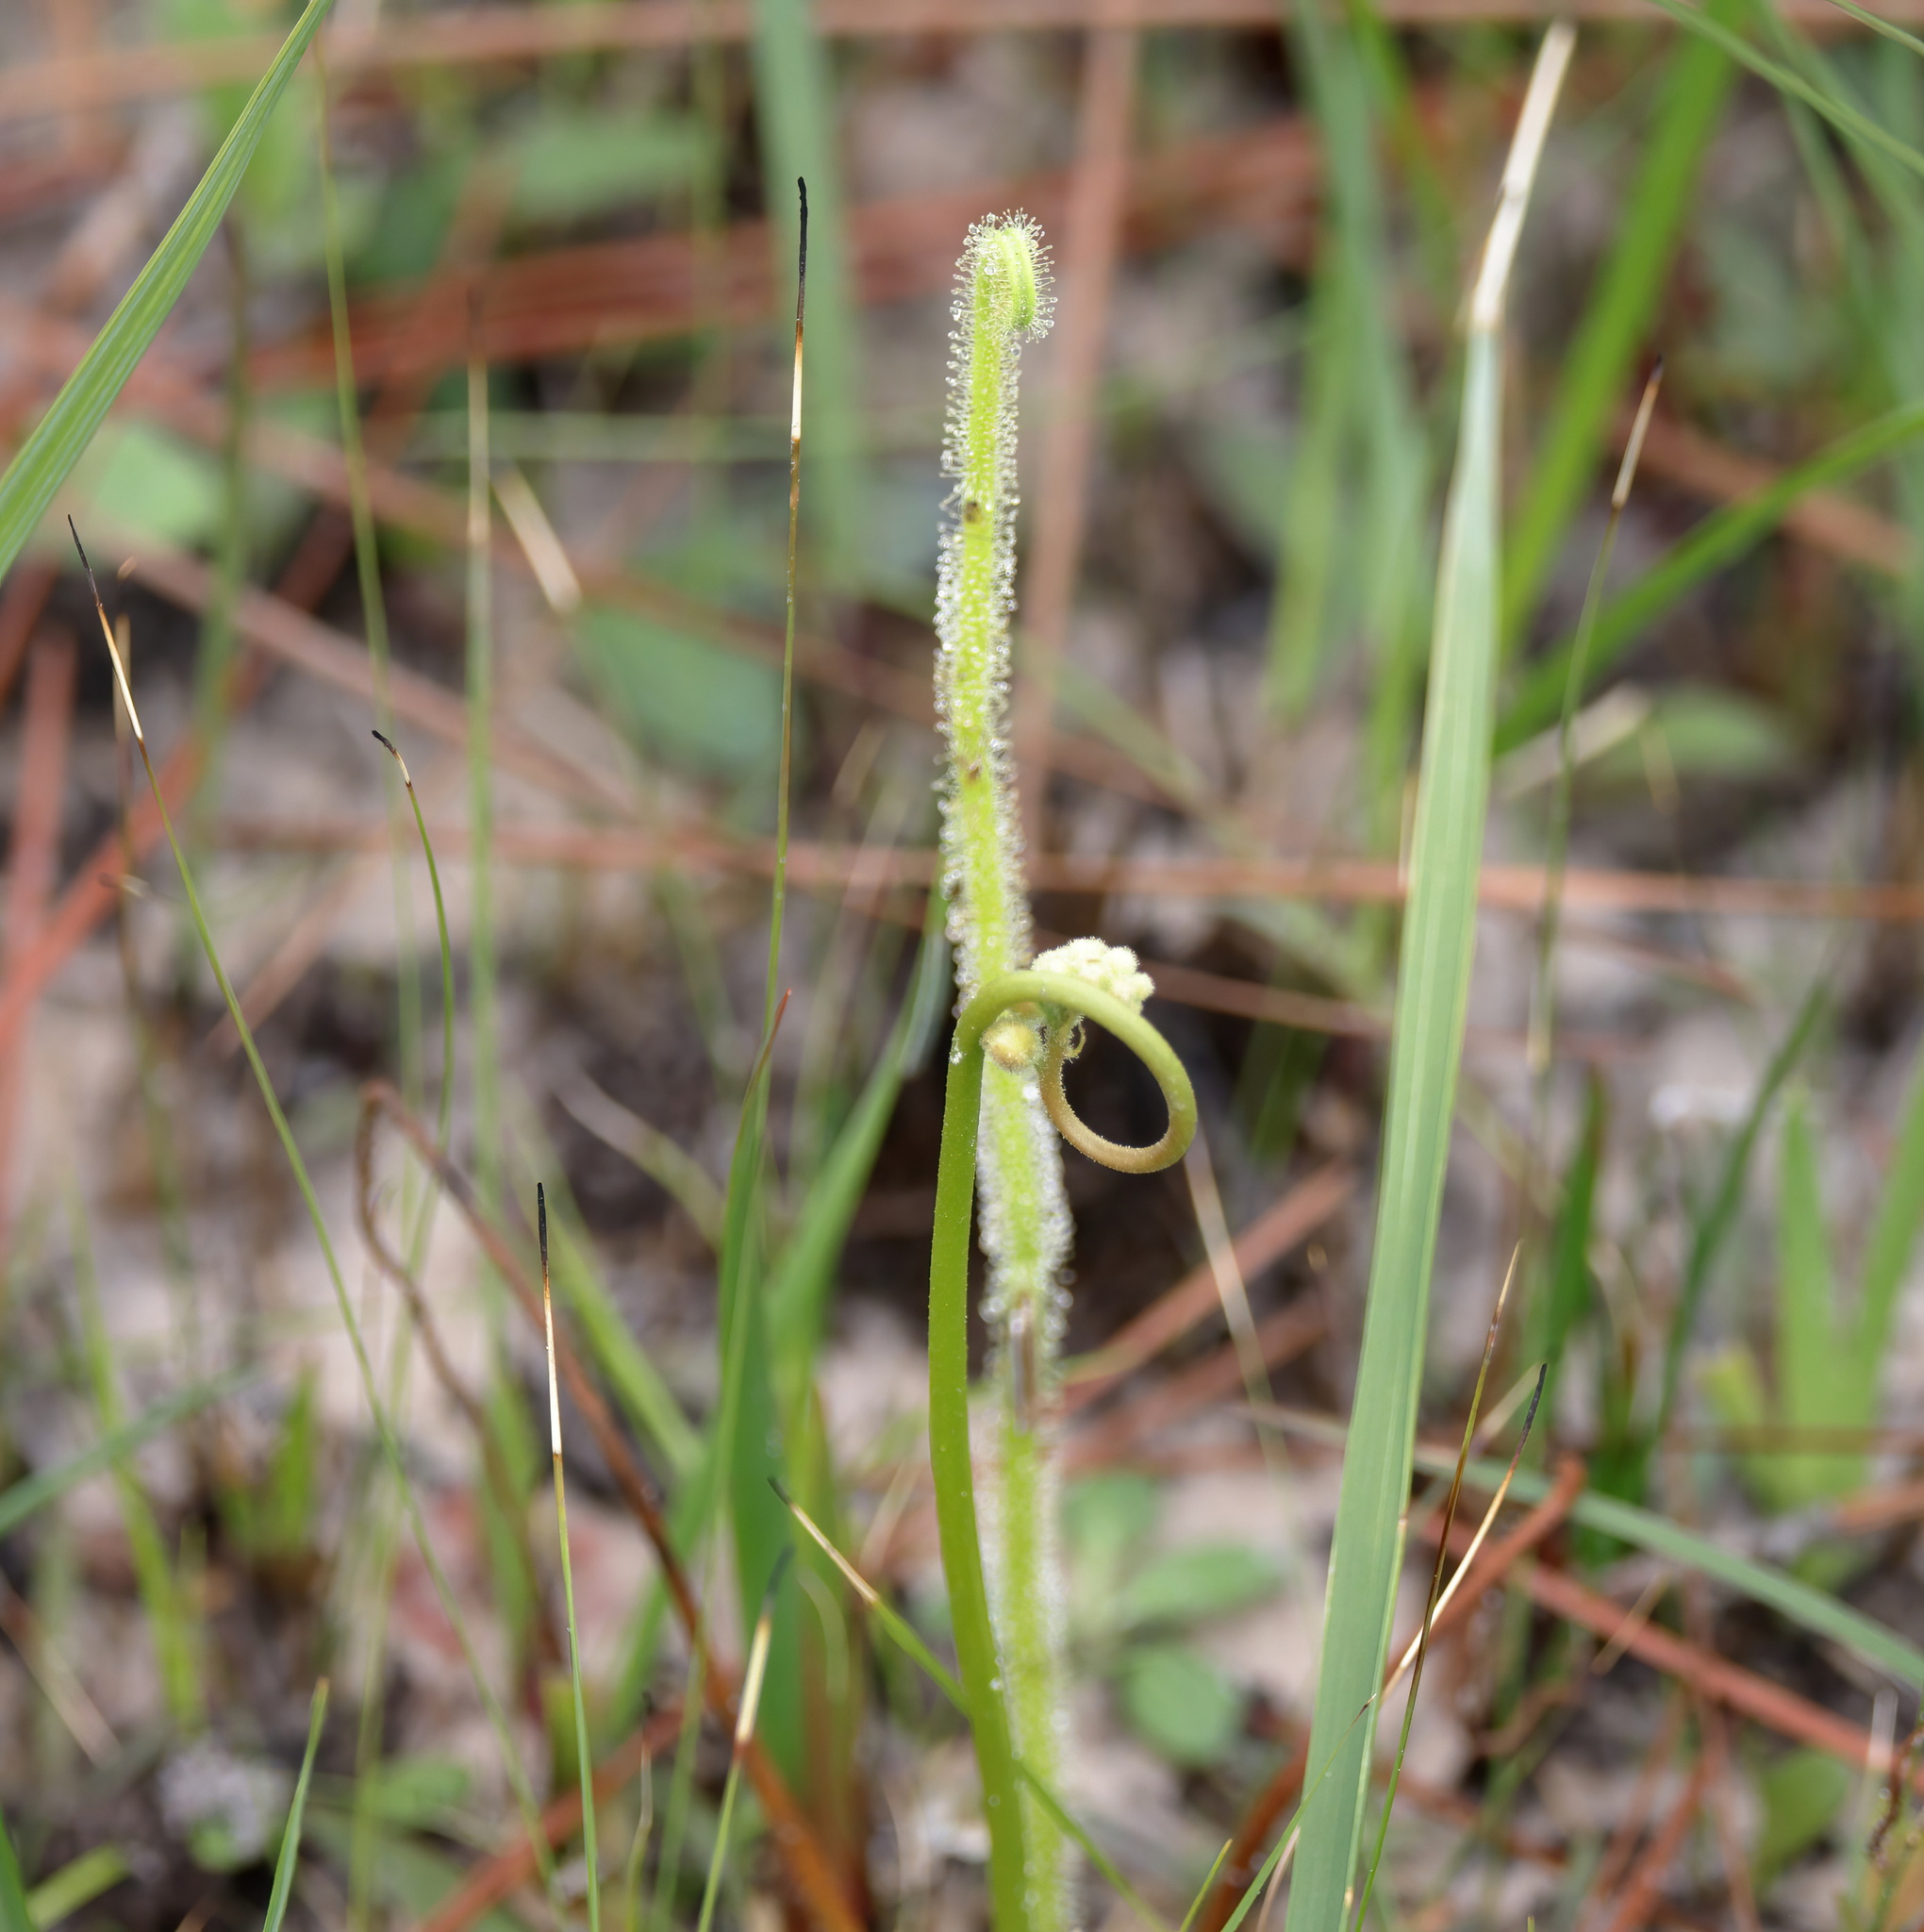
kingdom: Plantae
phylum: Tracheophyta
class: Magnoliopsida
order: Caryophyllales
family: Droseraceae
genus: Drosera
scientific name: Drosera filiformis
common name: Dew-thread
